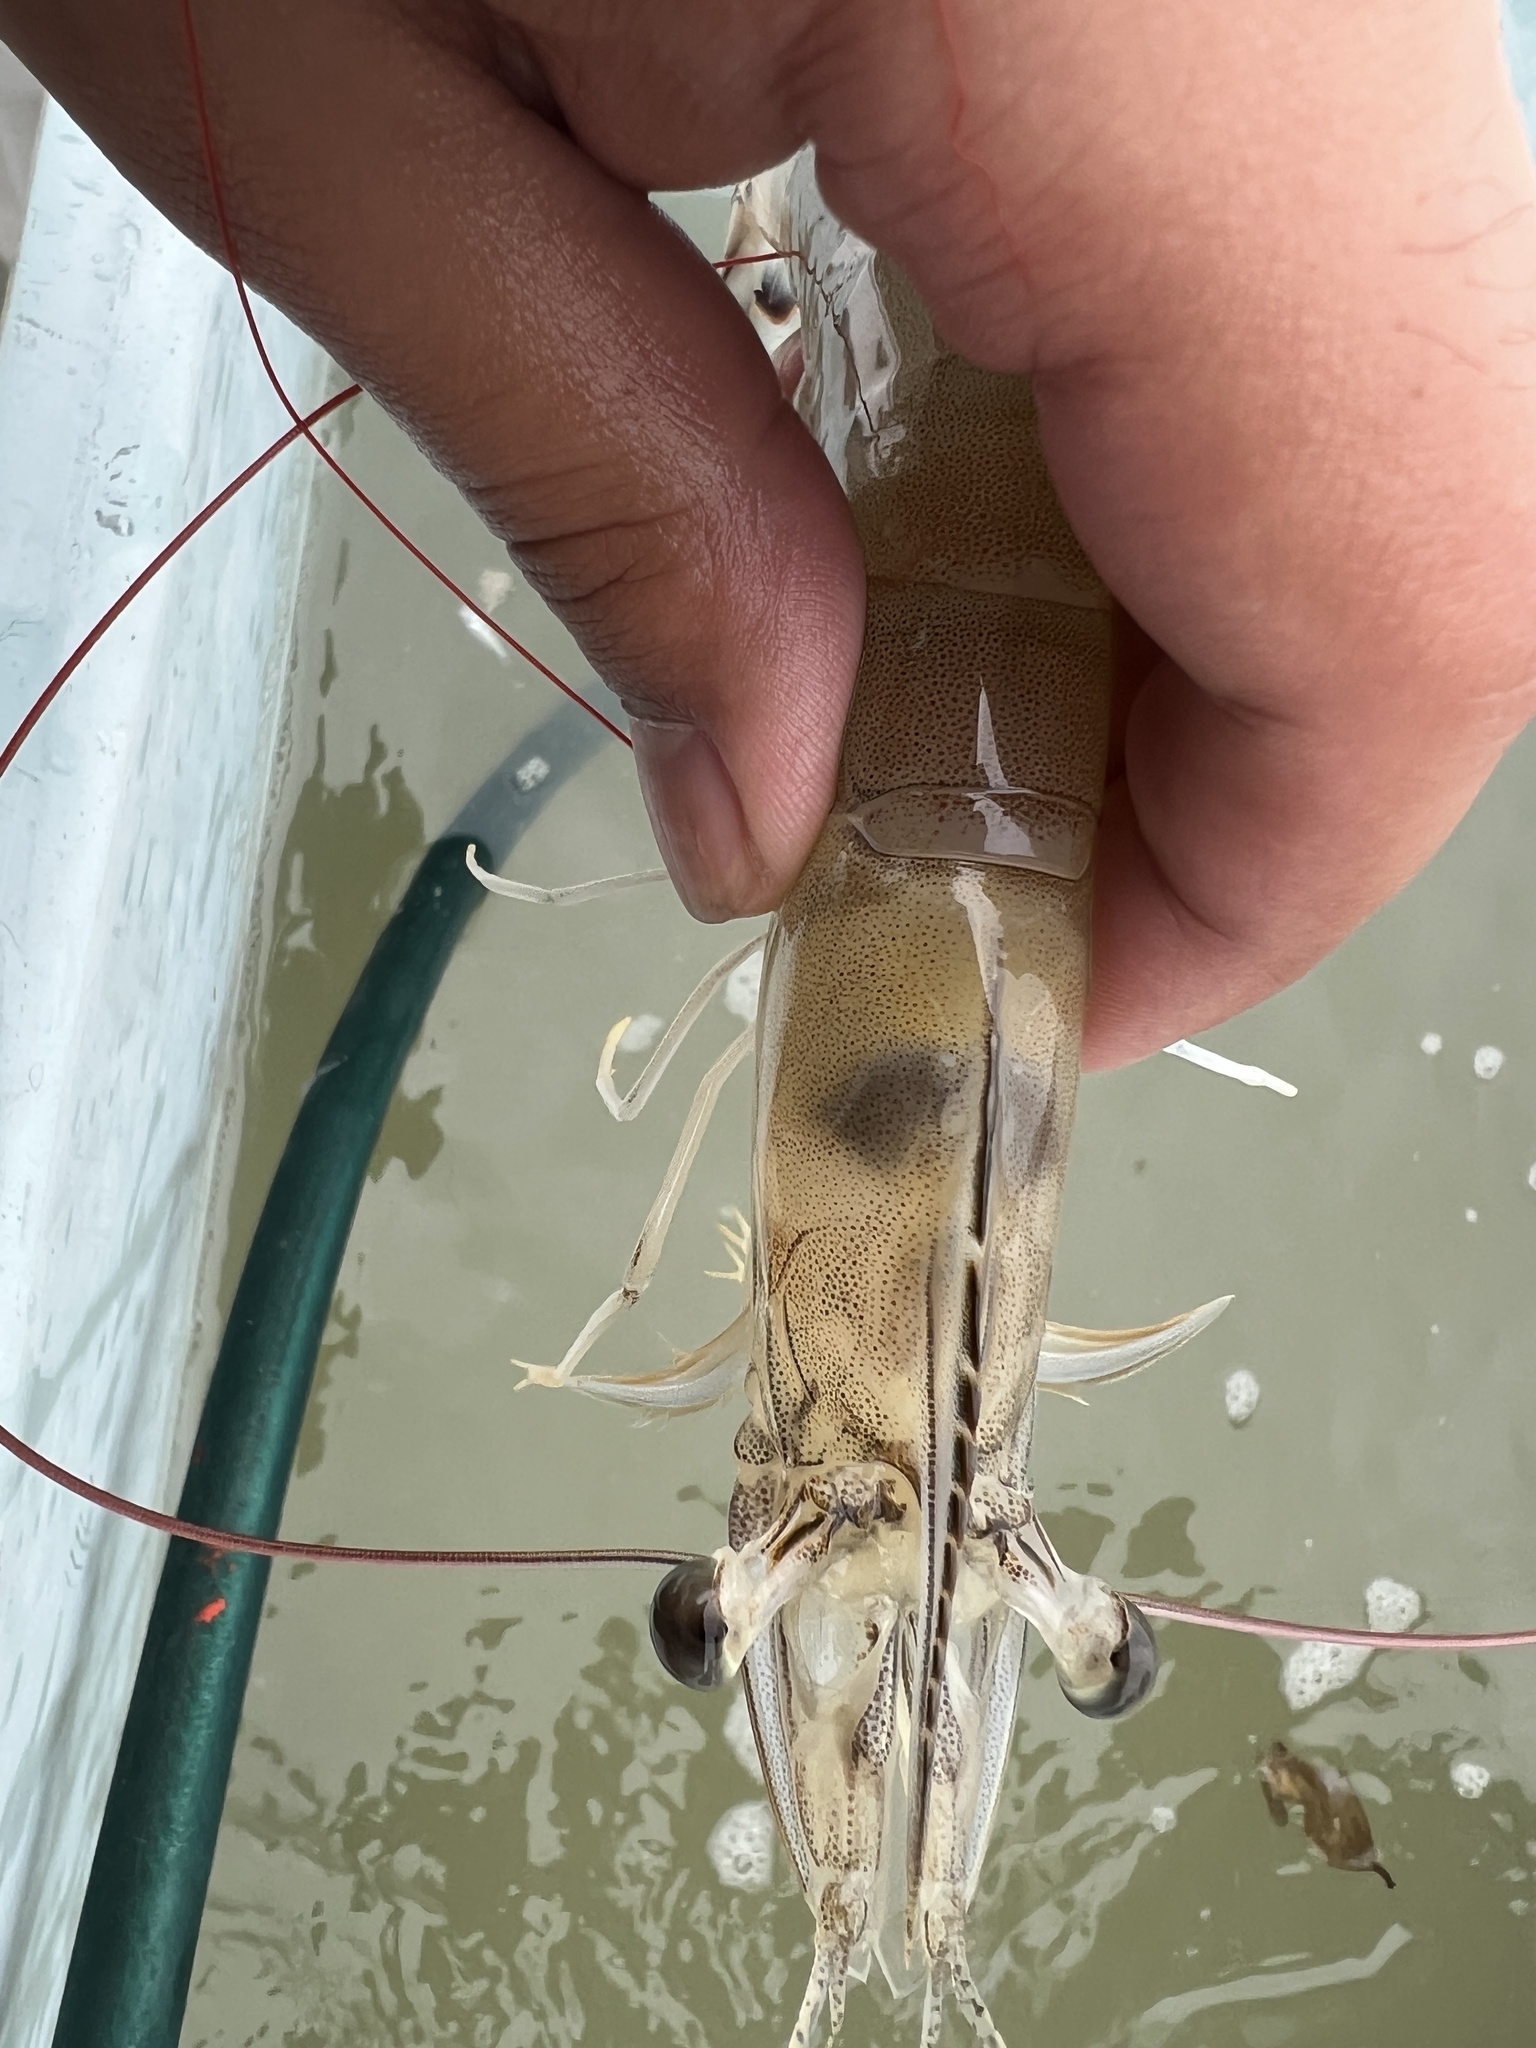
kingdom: Animalia
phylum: Arthropoda
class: Malacostraca
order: Decapoda
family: Penaeidae
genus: Penaeus
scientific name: Penaeus setiferus
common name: Northern white shrimp
